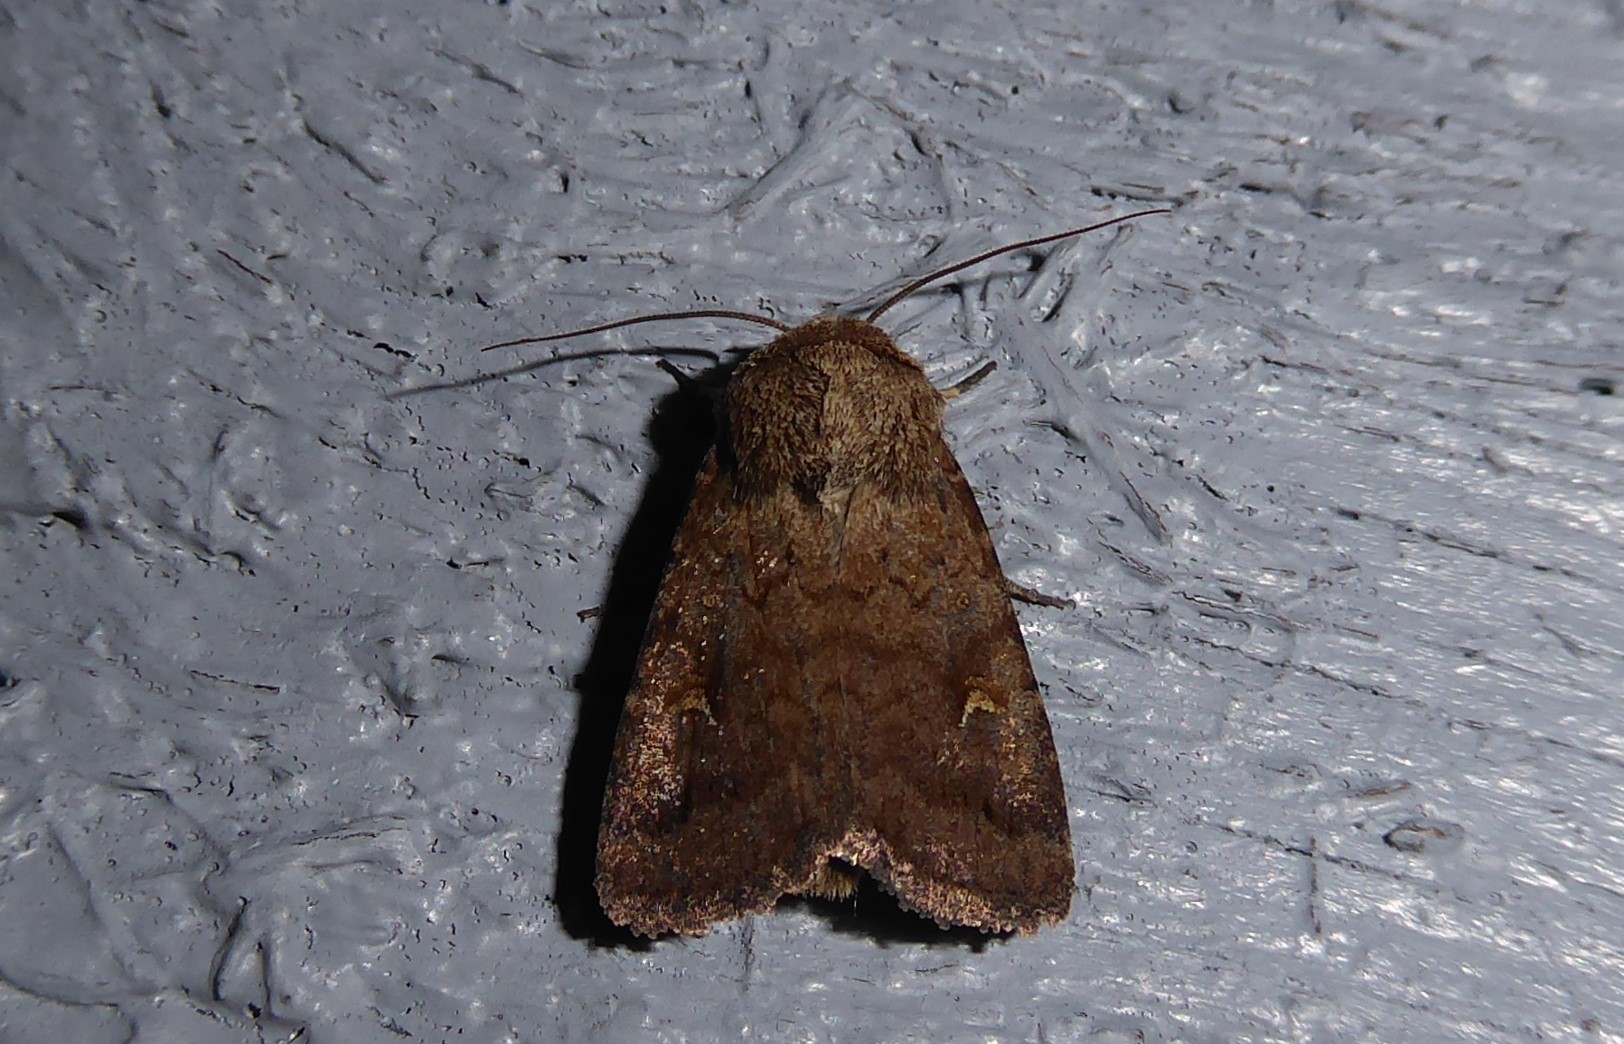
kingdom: Animalia
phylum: Arthropoda
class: Insecta
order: Lepidoptera
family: Noctuidae
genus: Proteuxoa
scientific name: Proteuxoa tetronycha
